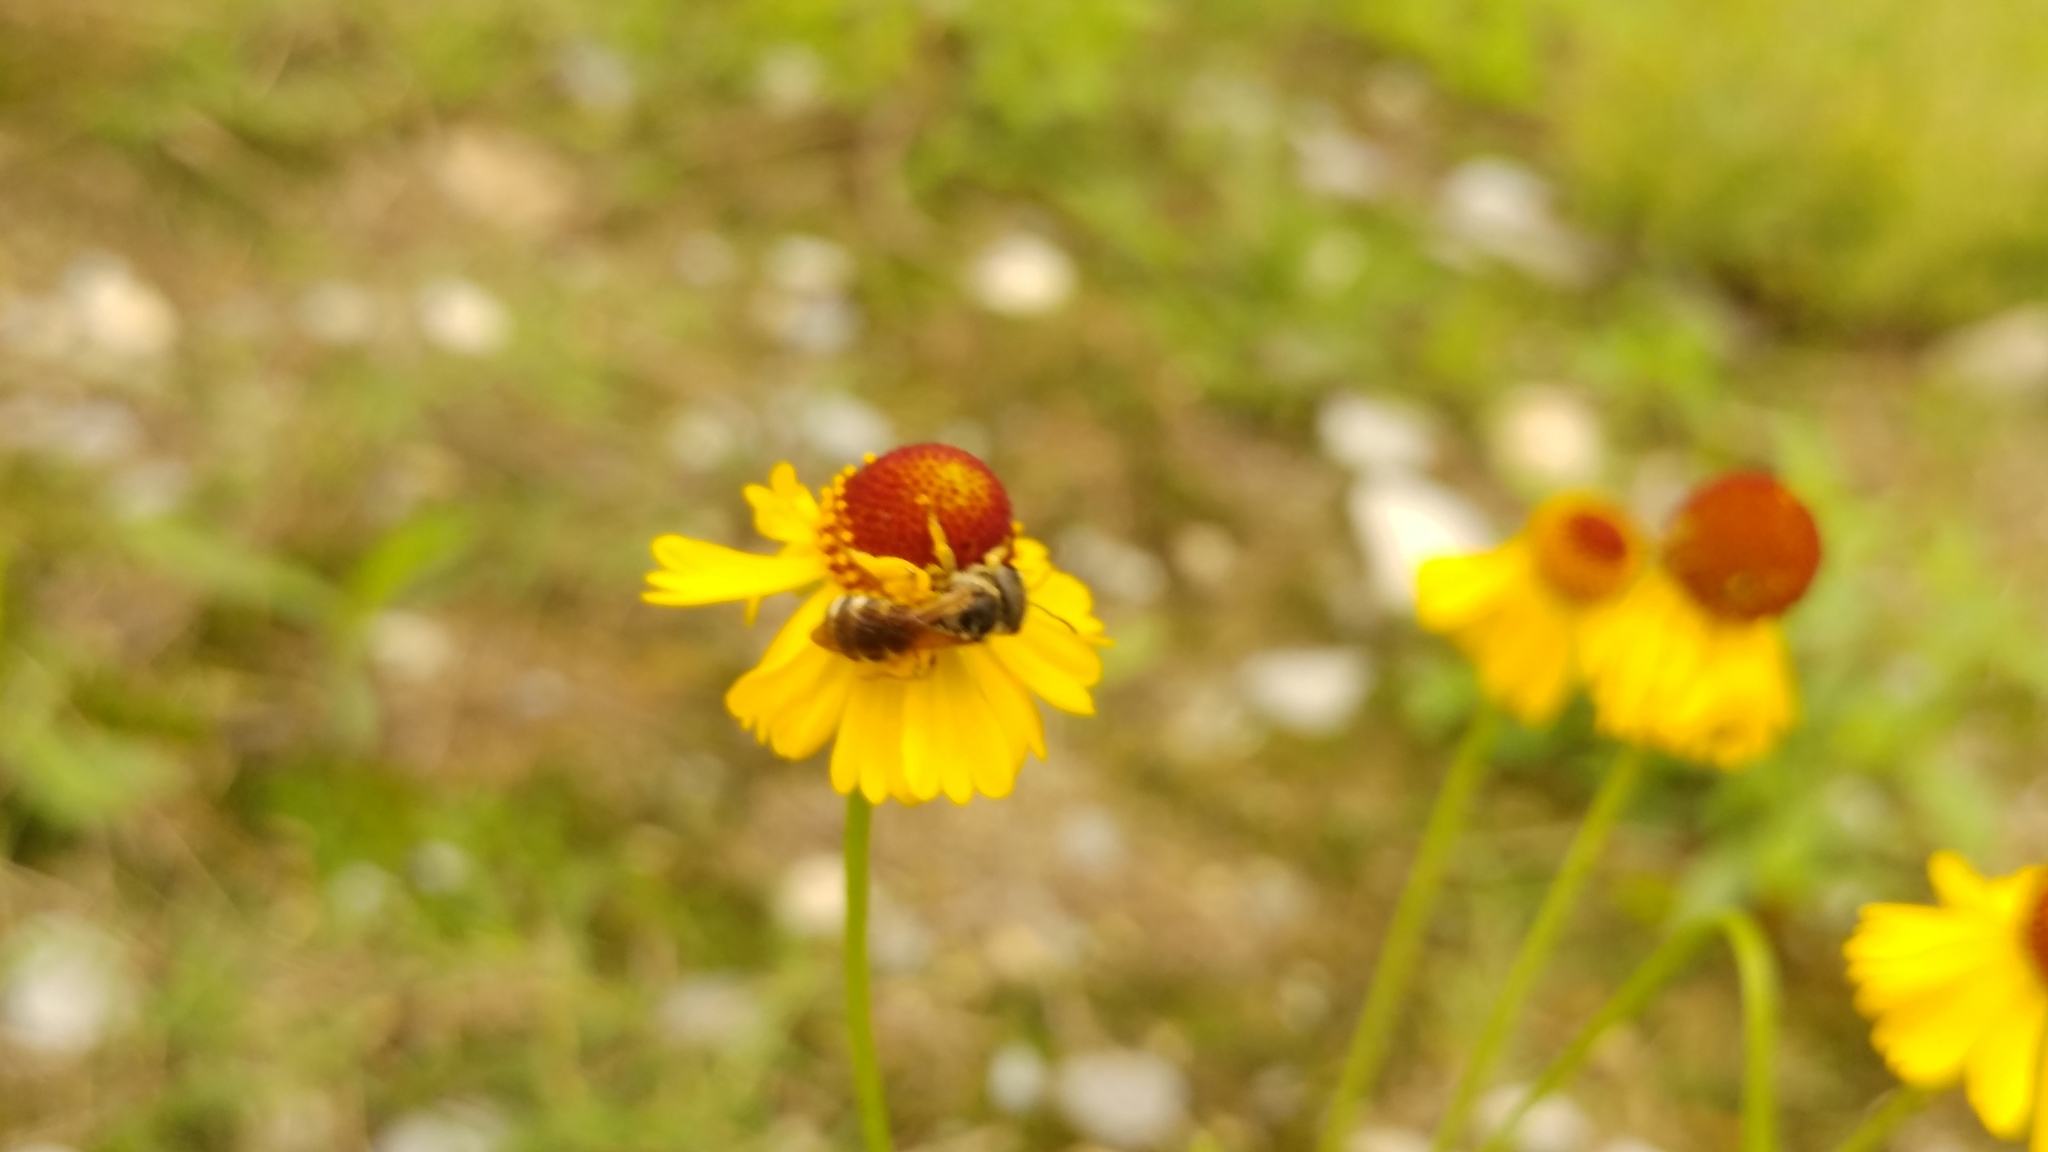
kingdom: Animalia
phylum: Arthropoda
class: Insecta
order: Hymenoptera
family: Halictidae
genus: Halictus
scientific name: Halictus ligatus
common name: Ligated furrow bee
